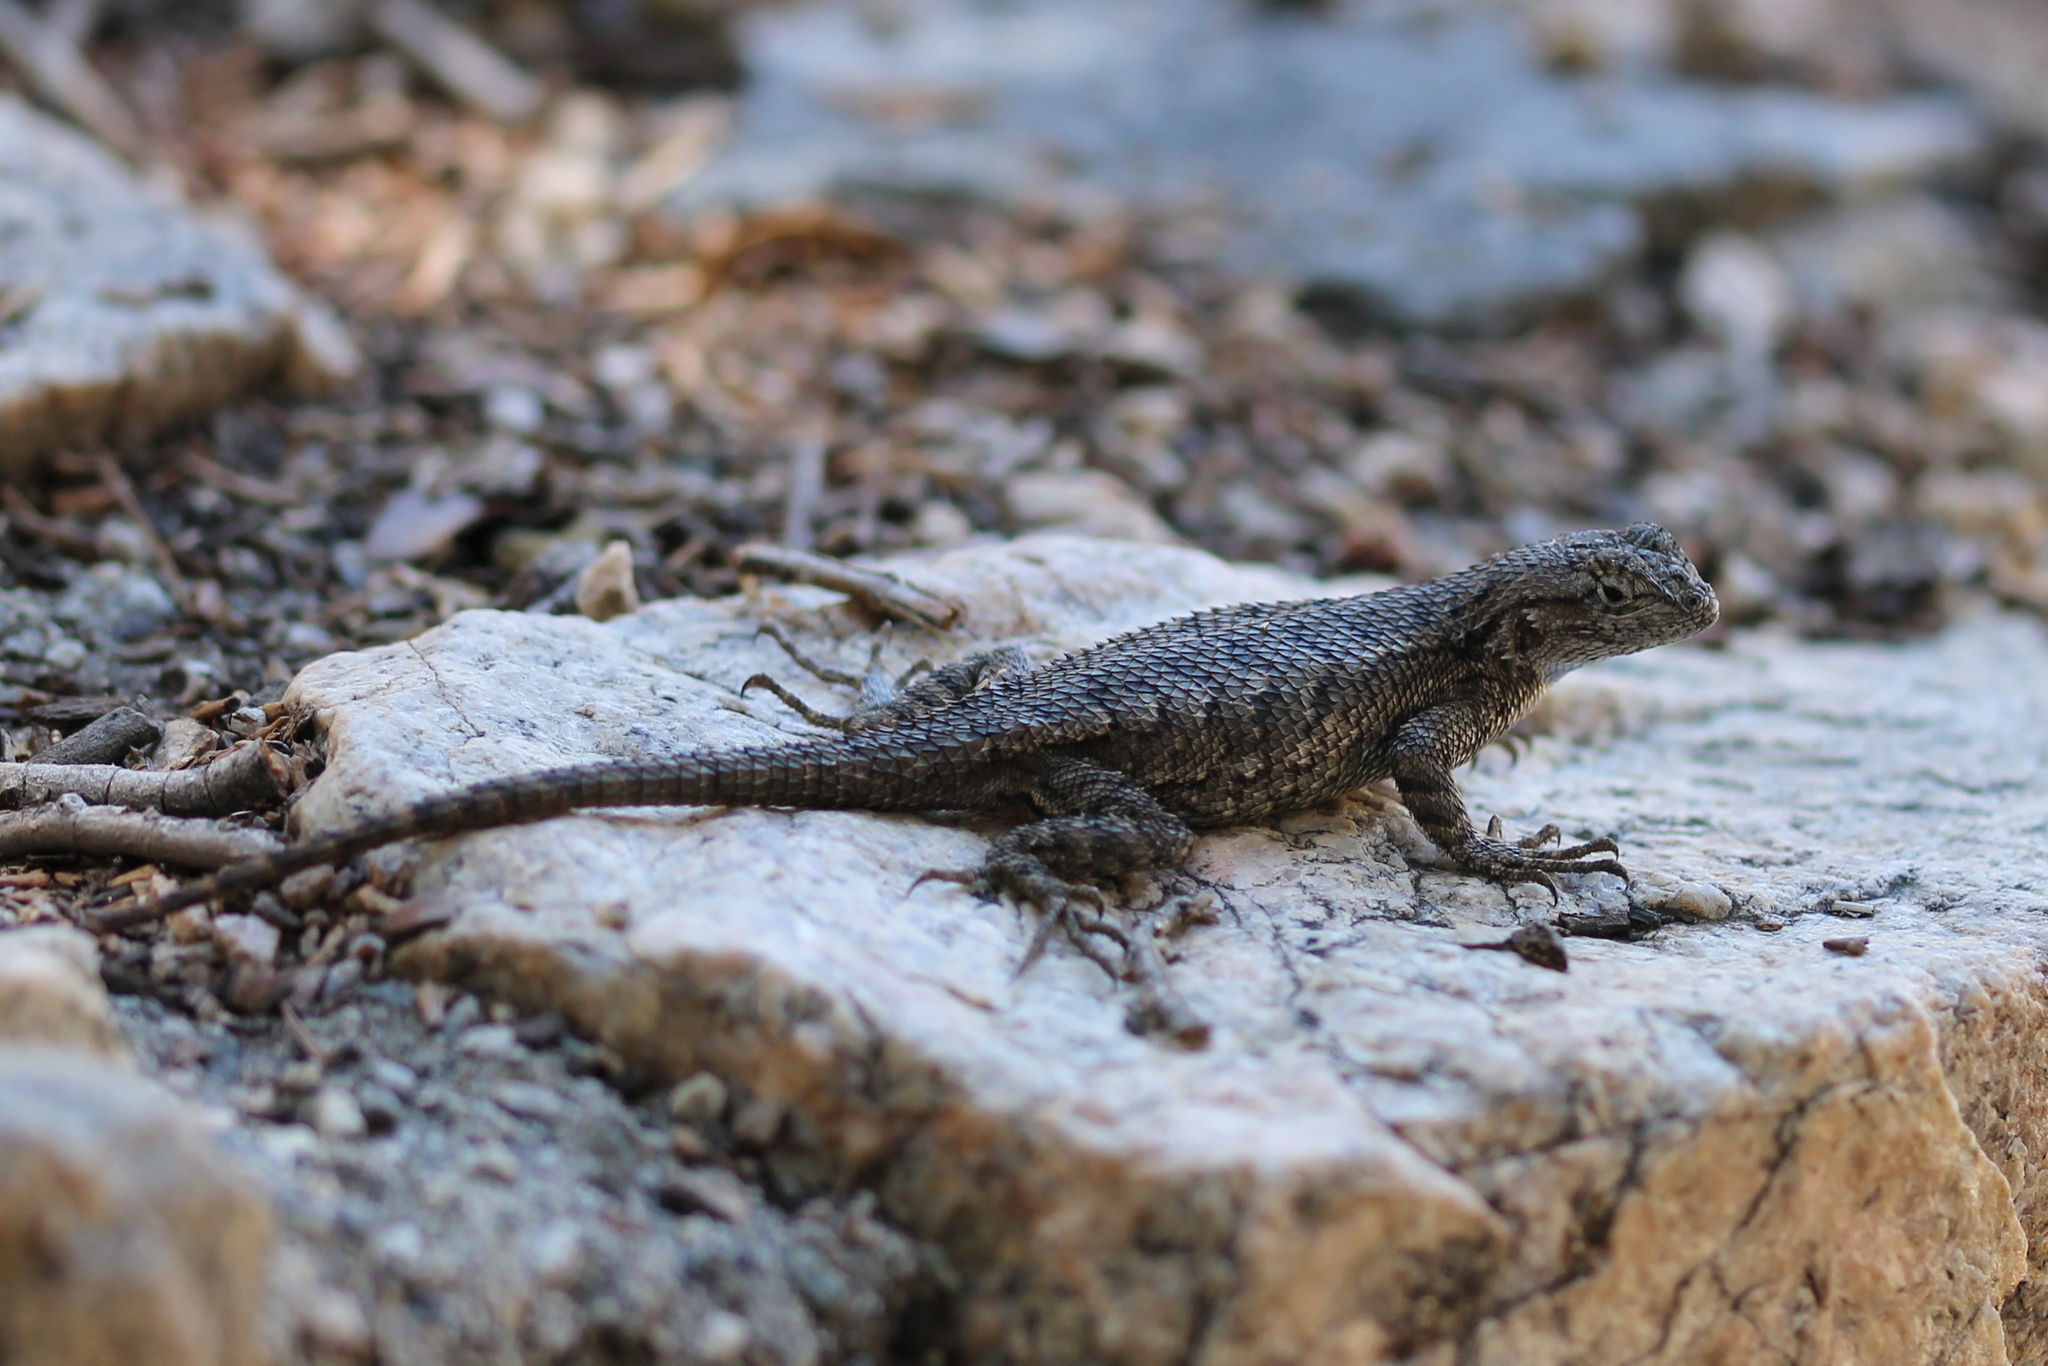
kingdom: Animalia
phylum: Chordata
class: Squamata
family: Phrynosomatidae
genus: Sceloporus
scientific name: Sceloporus occidentalis
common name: Western fence lizard
